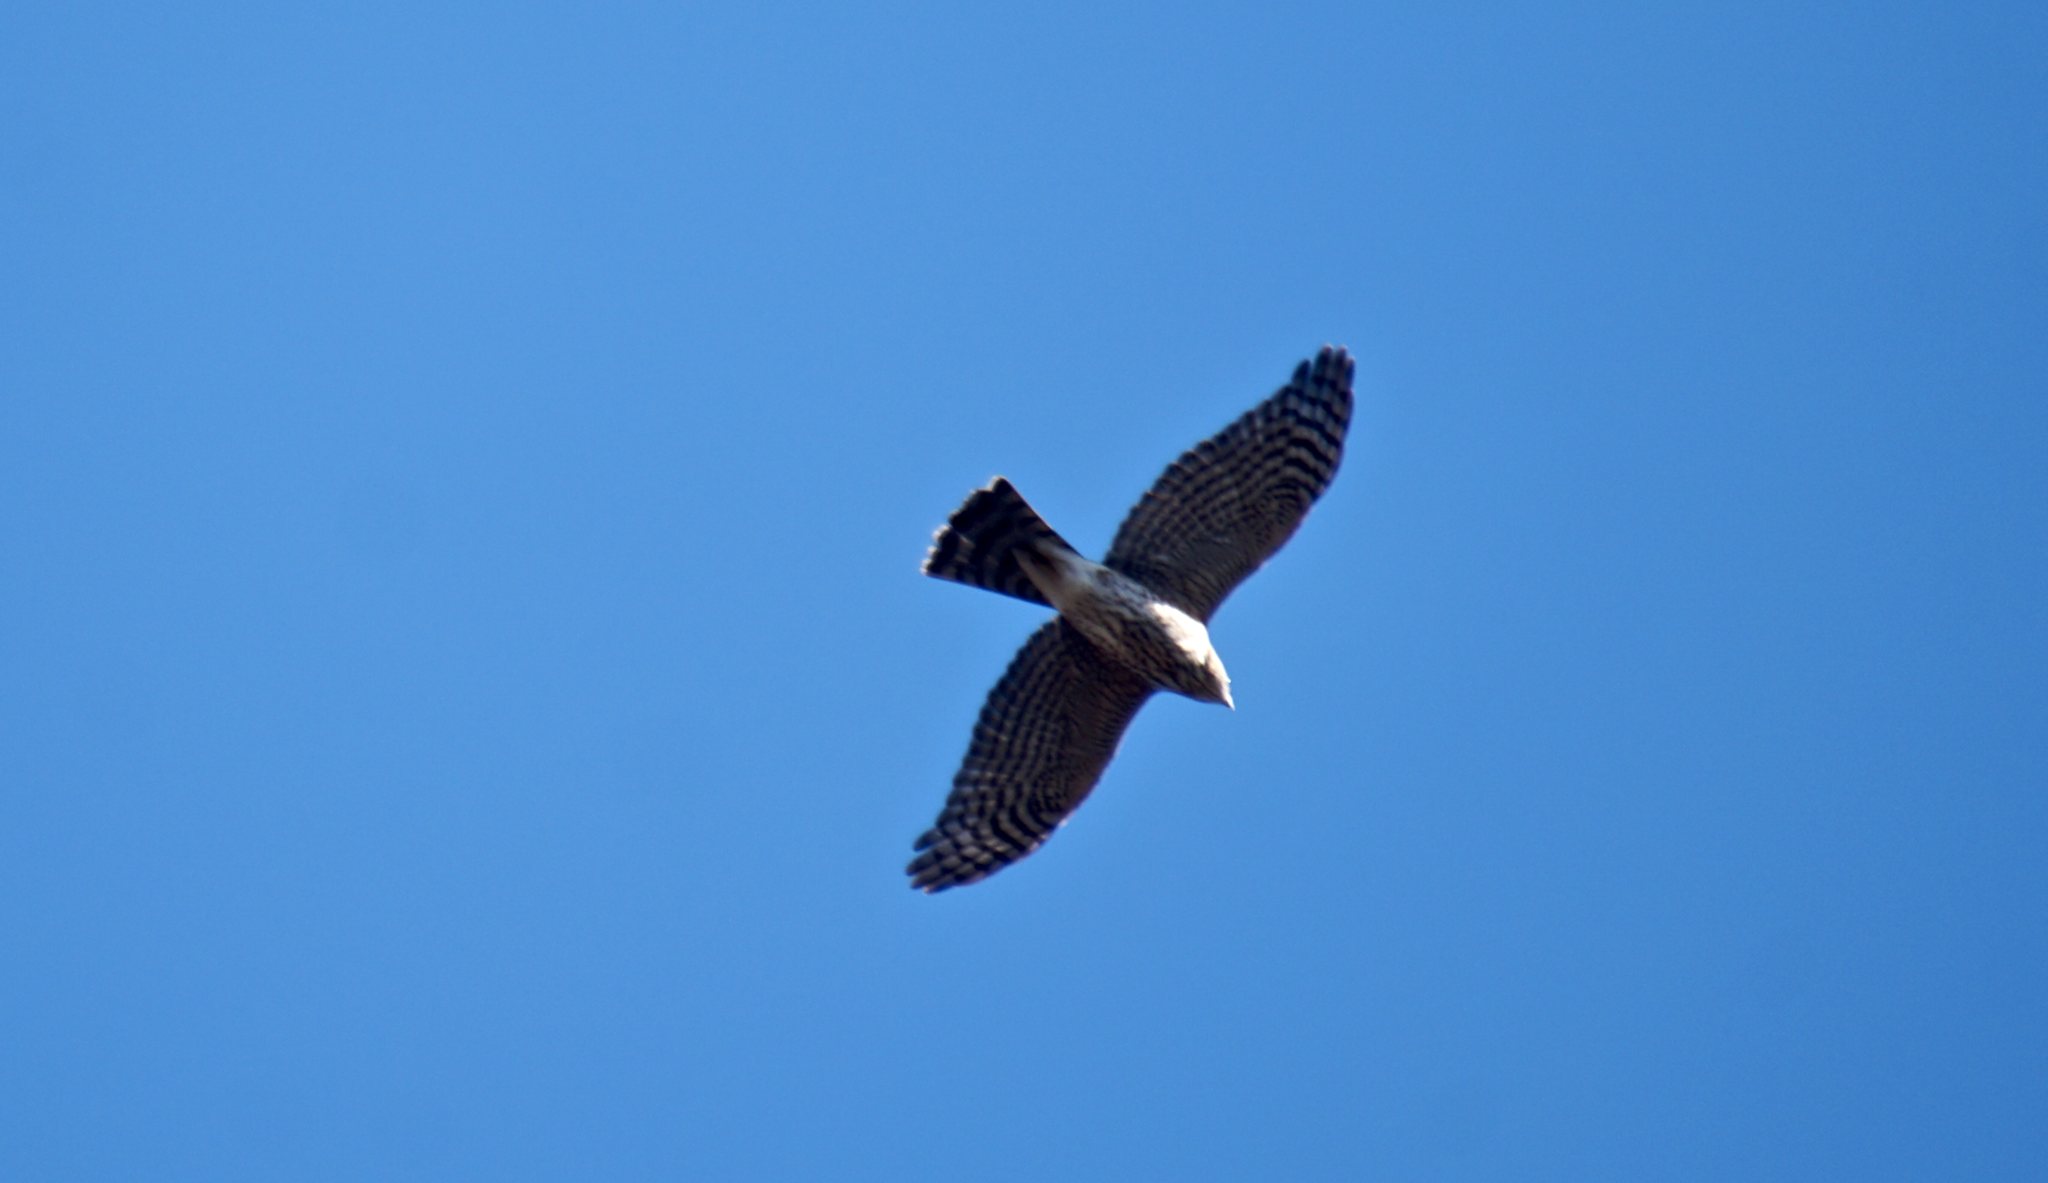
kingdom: Animalia
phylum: Chordata
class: Aves
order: Accipitriformes
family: Accipitridae
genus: Accipiter
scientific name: Accipiter striatus
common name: Sharp-shinned hawk
